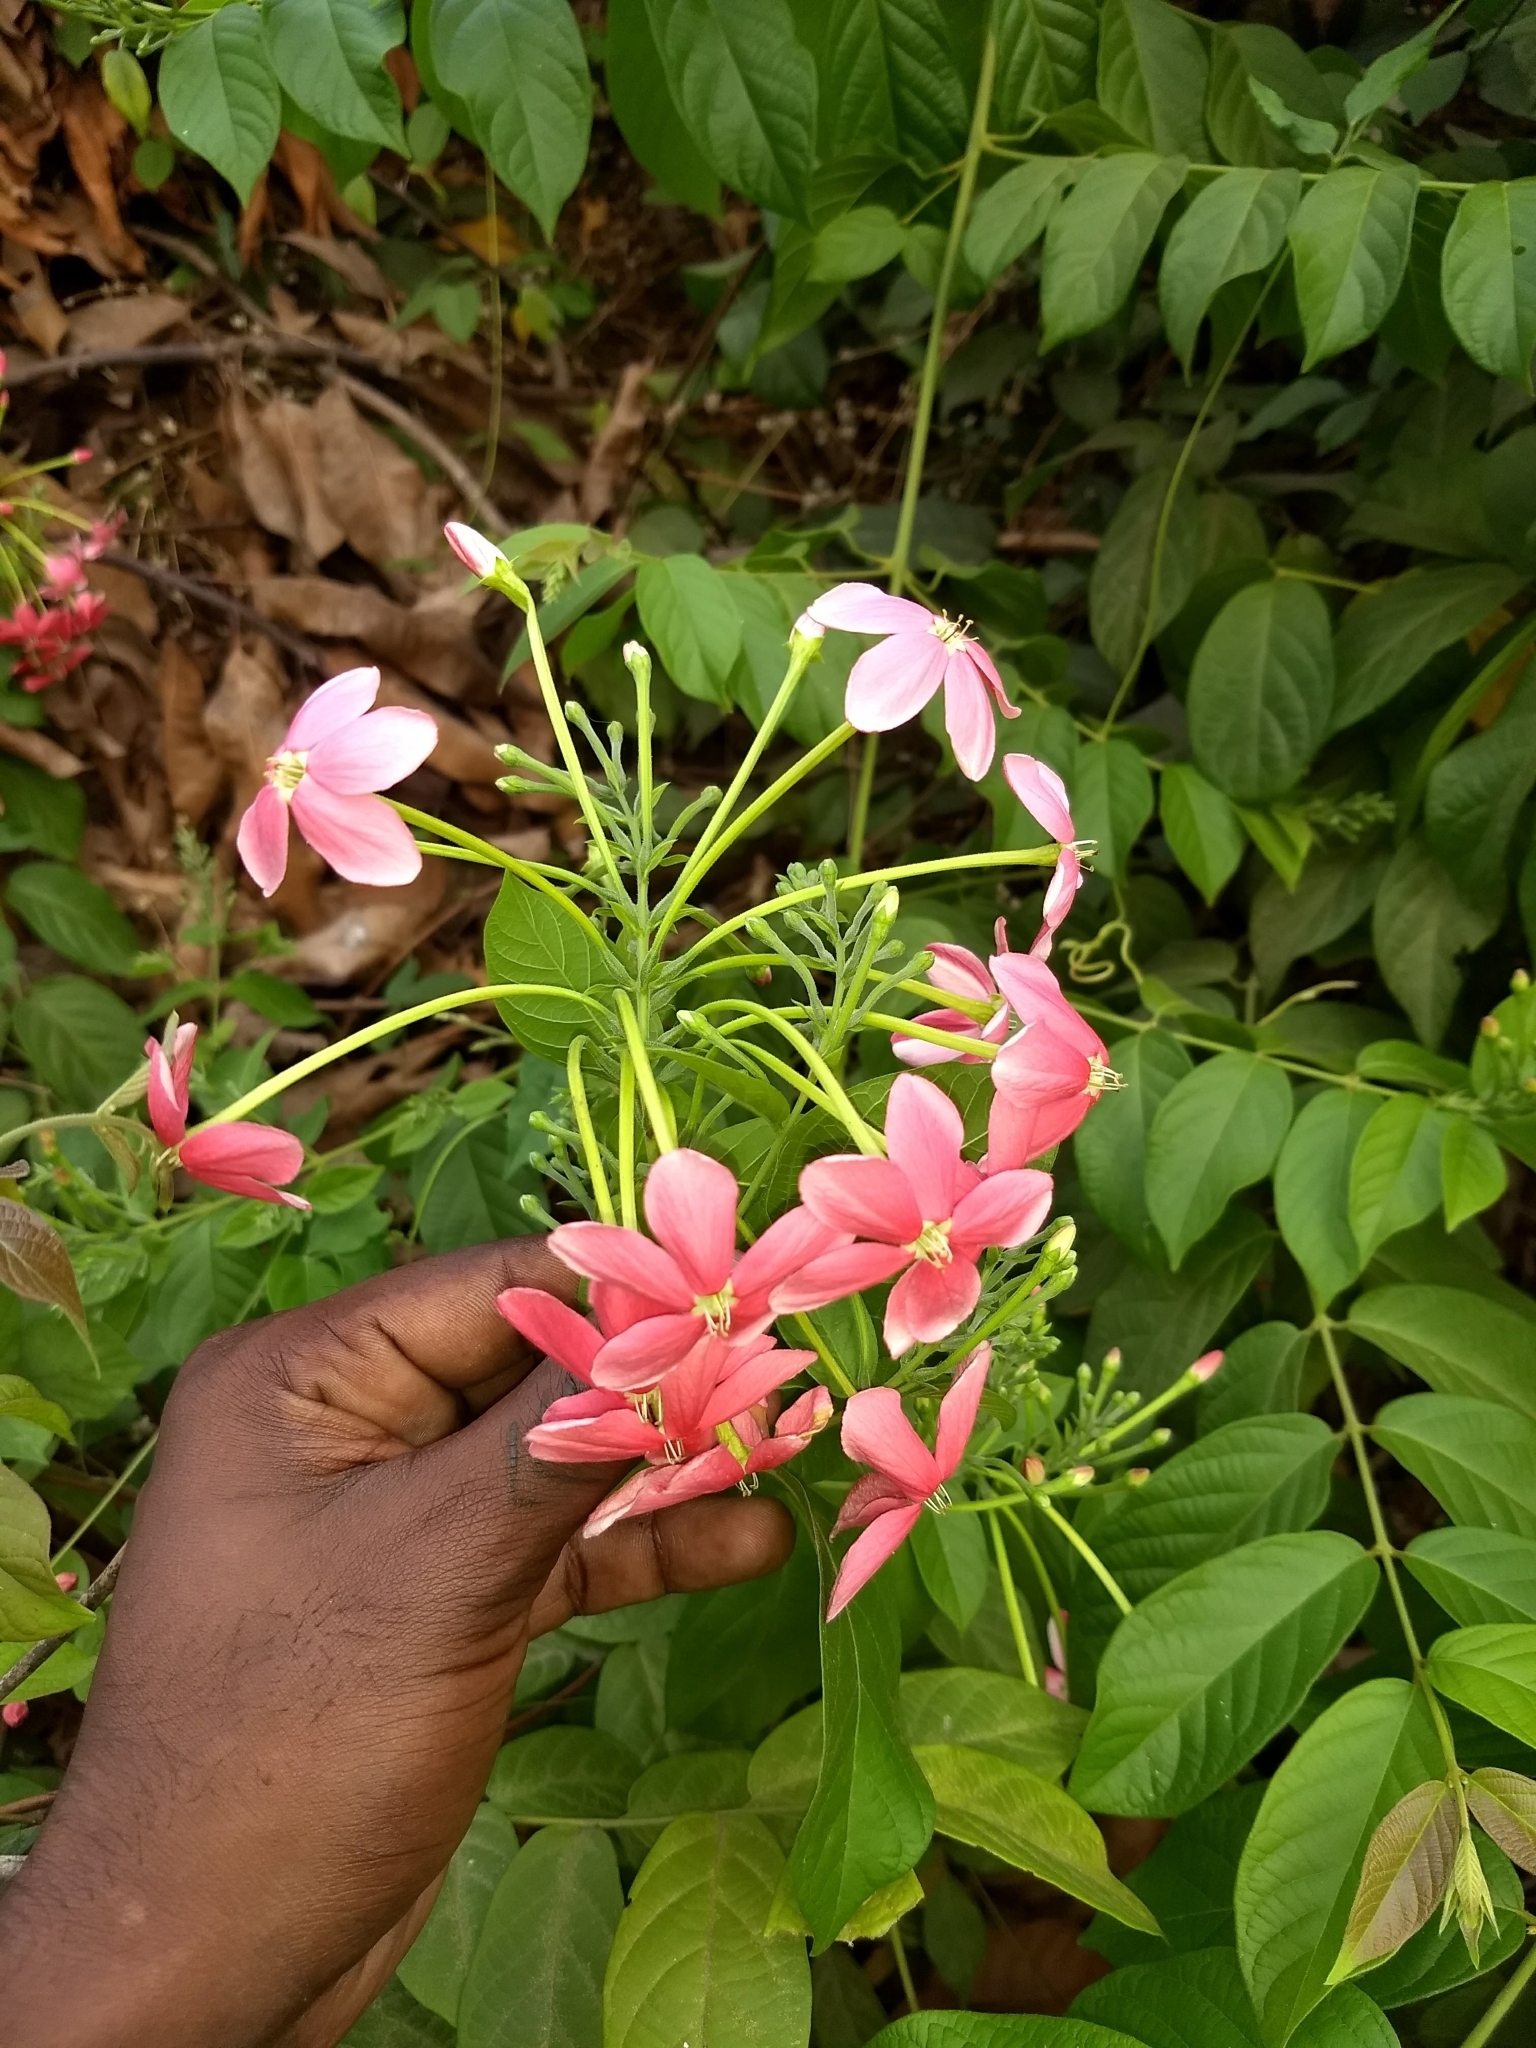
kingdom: Plantae
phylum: Tracheophyta
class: Magnoliopsida
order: Myrtales
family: Combretaceae
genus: Combretum
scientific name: Combretum indicum
